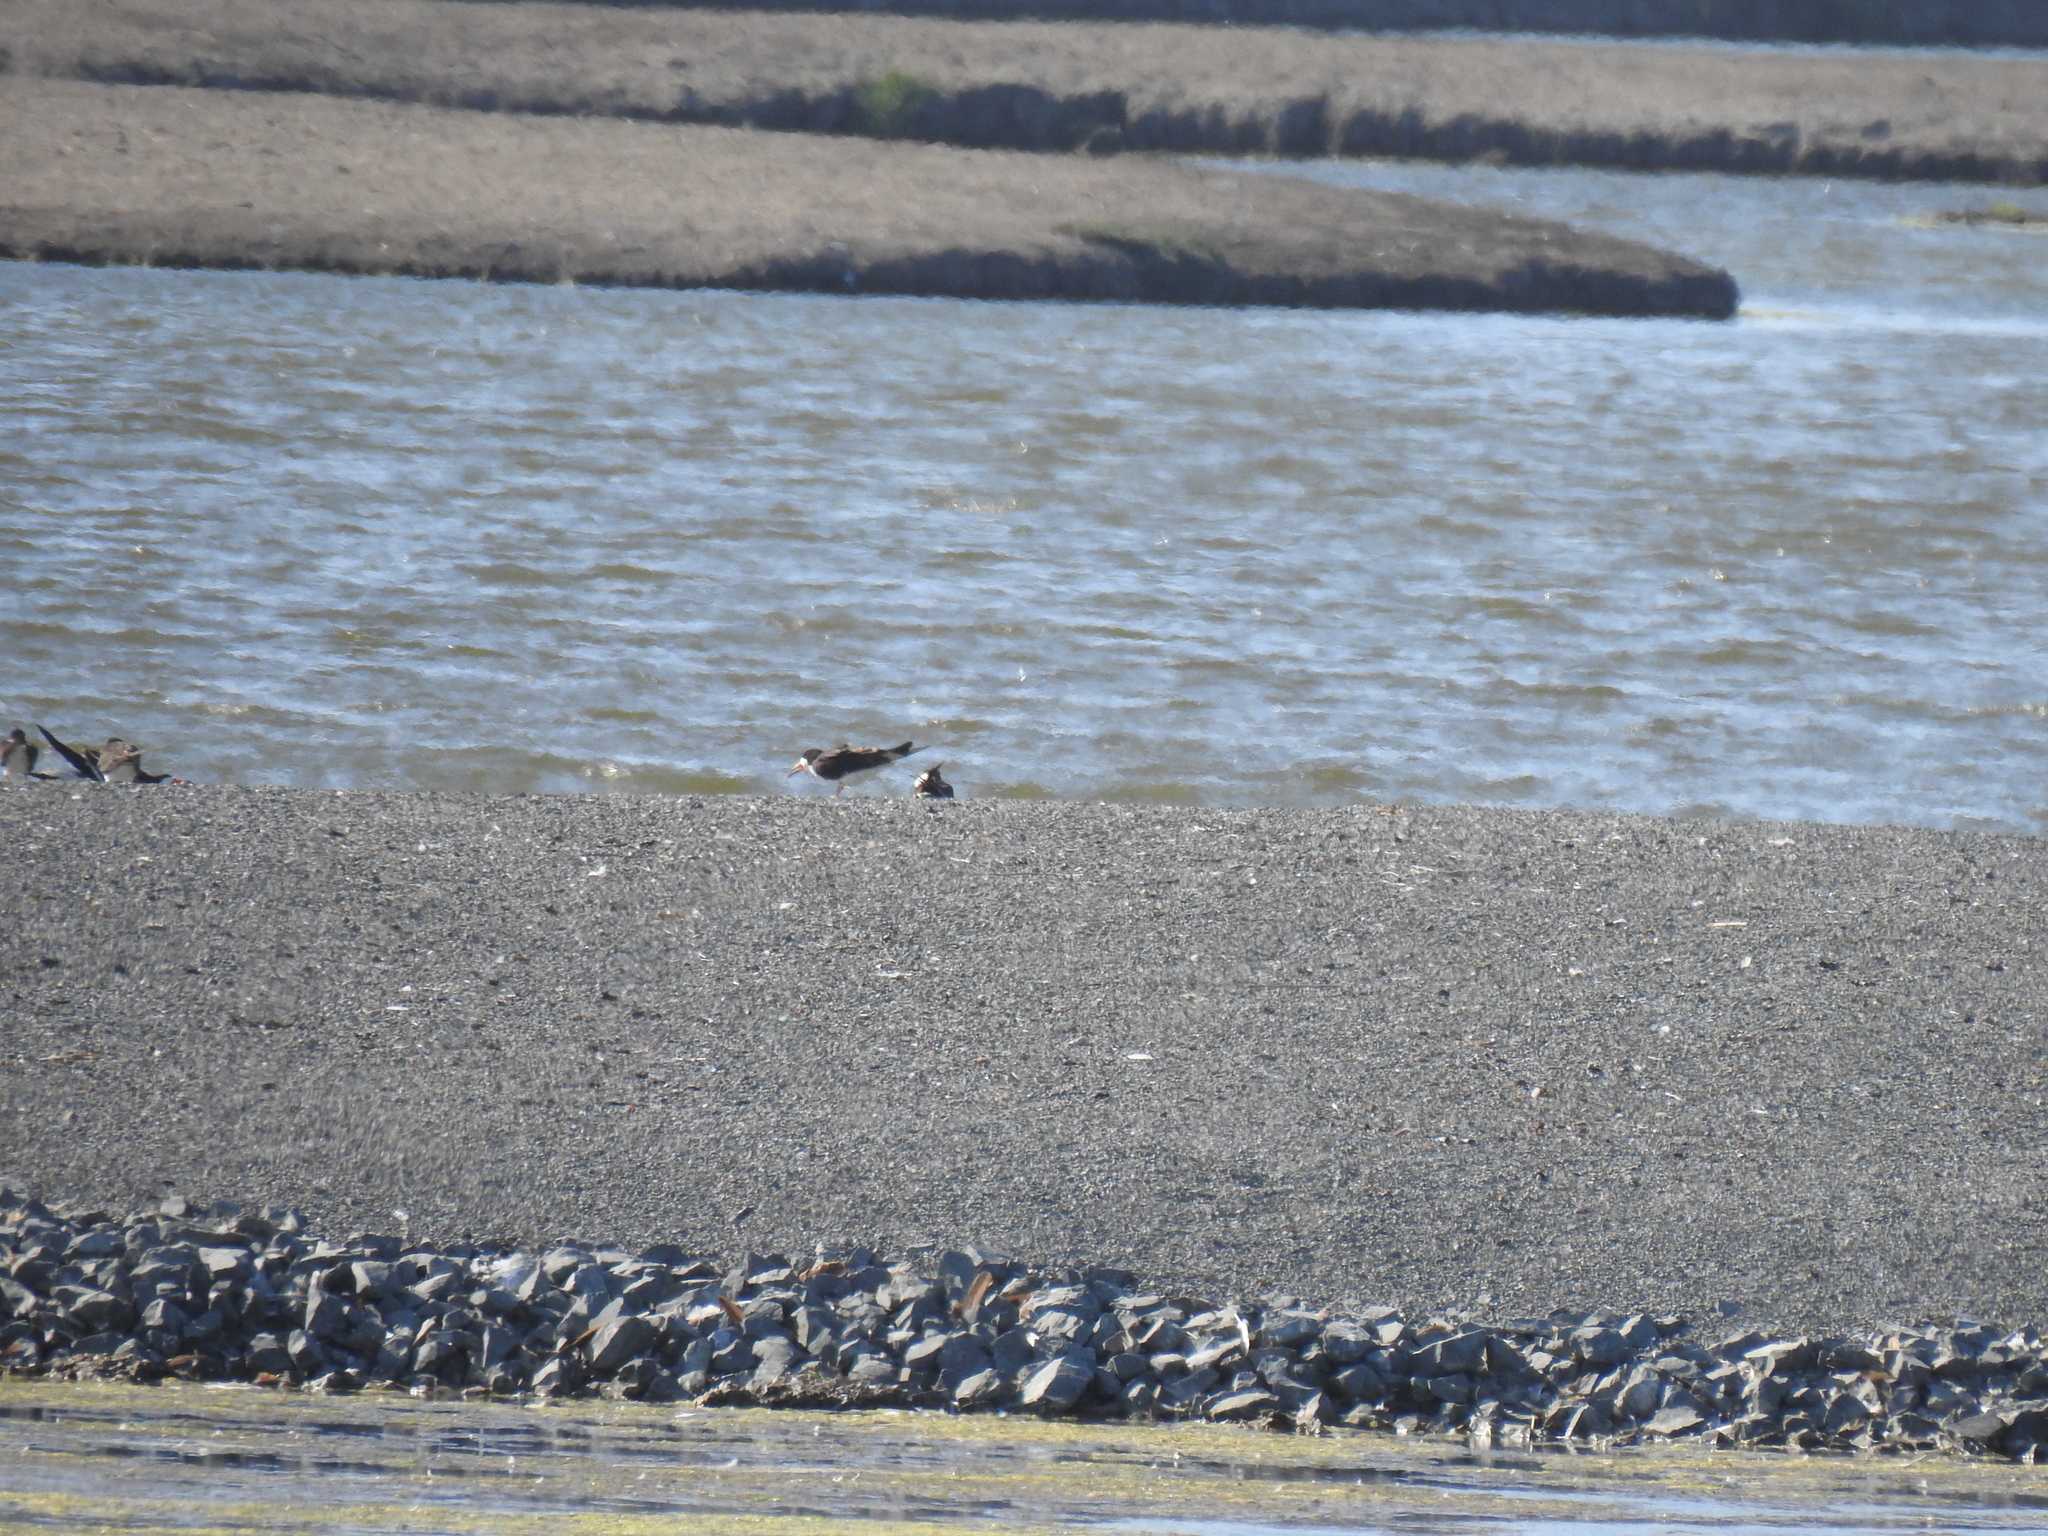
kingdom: Animalia
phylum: Chordata
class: Aves
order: Charadriiformes
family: Laridae
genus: Rynchops
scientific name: Rynchops niger
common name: Black skimmer
